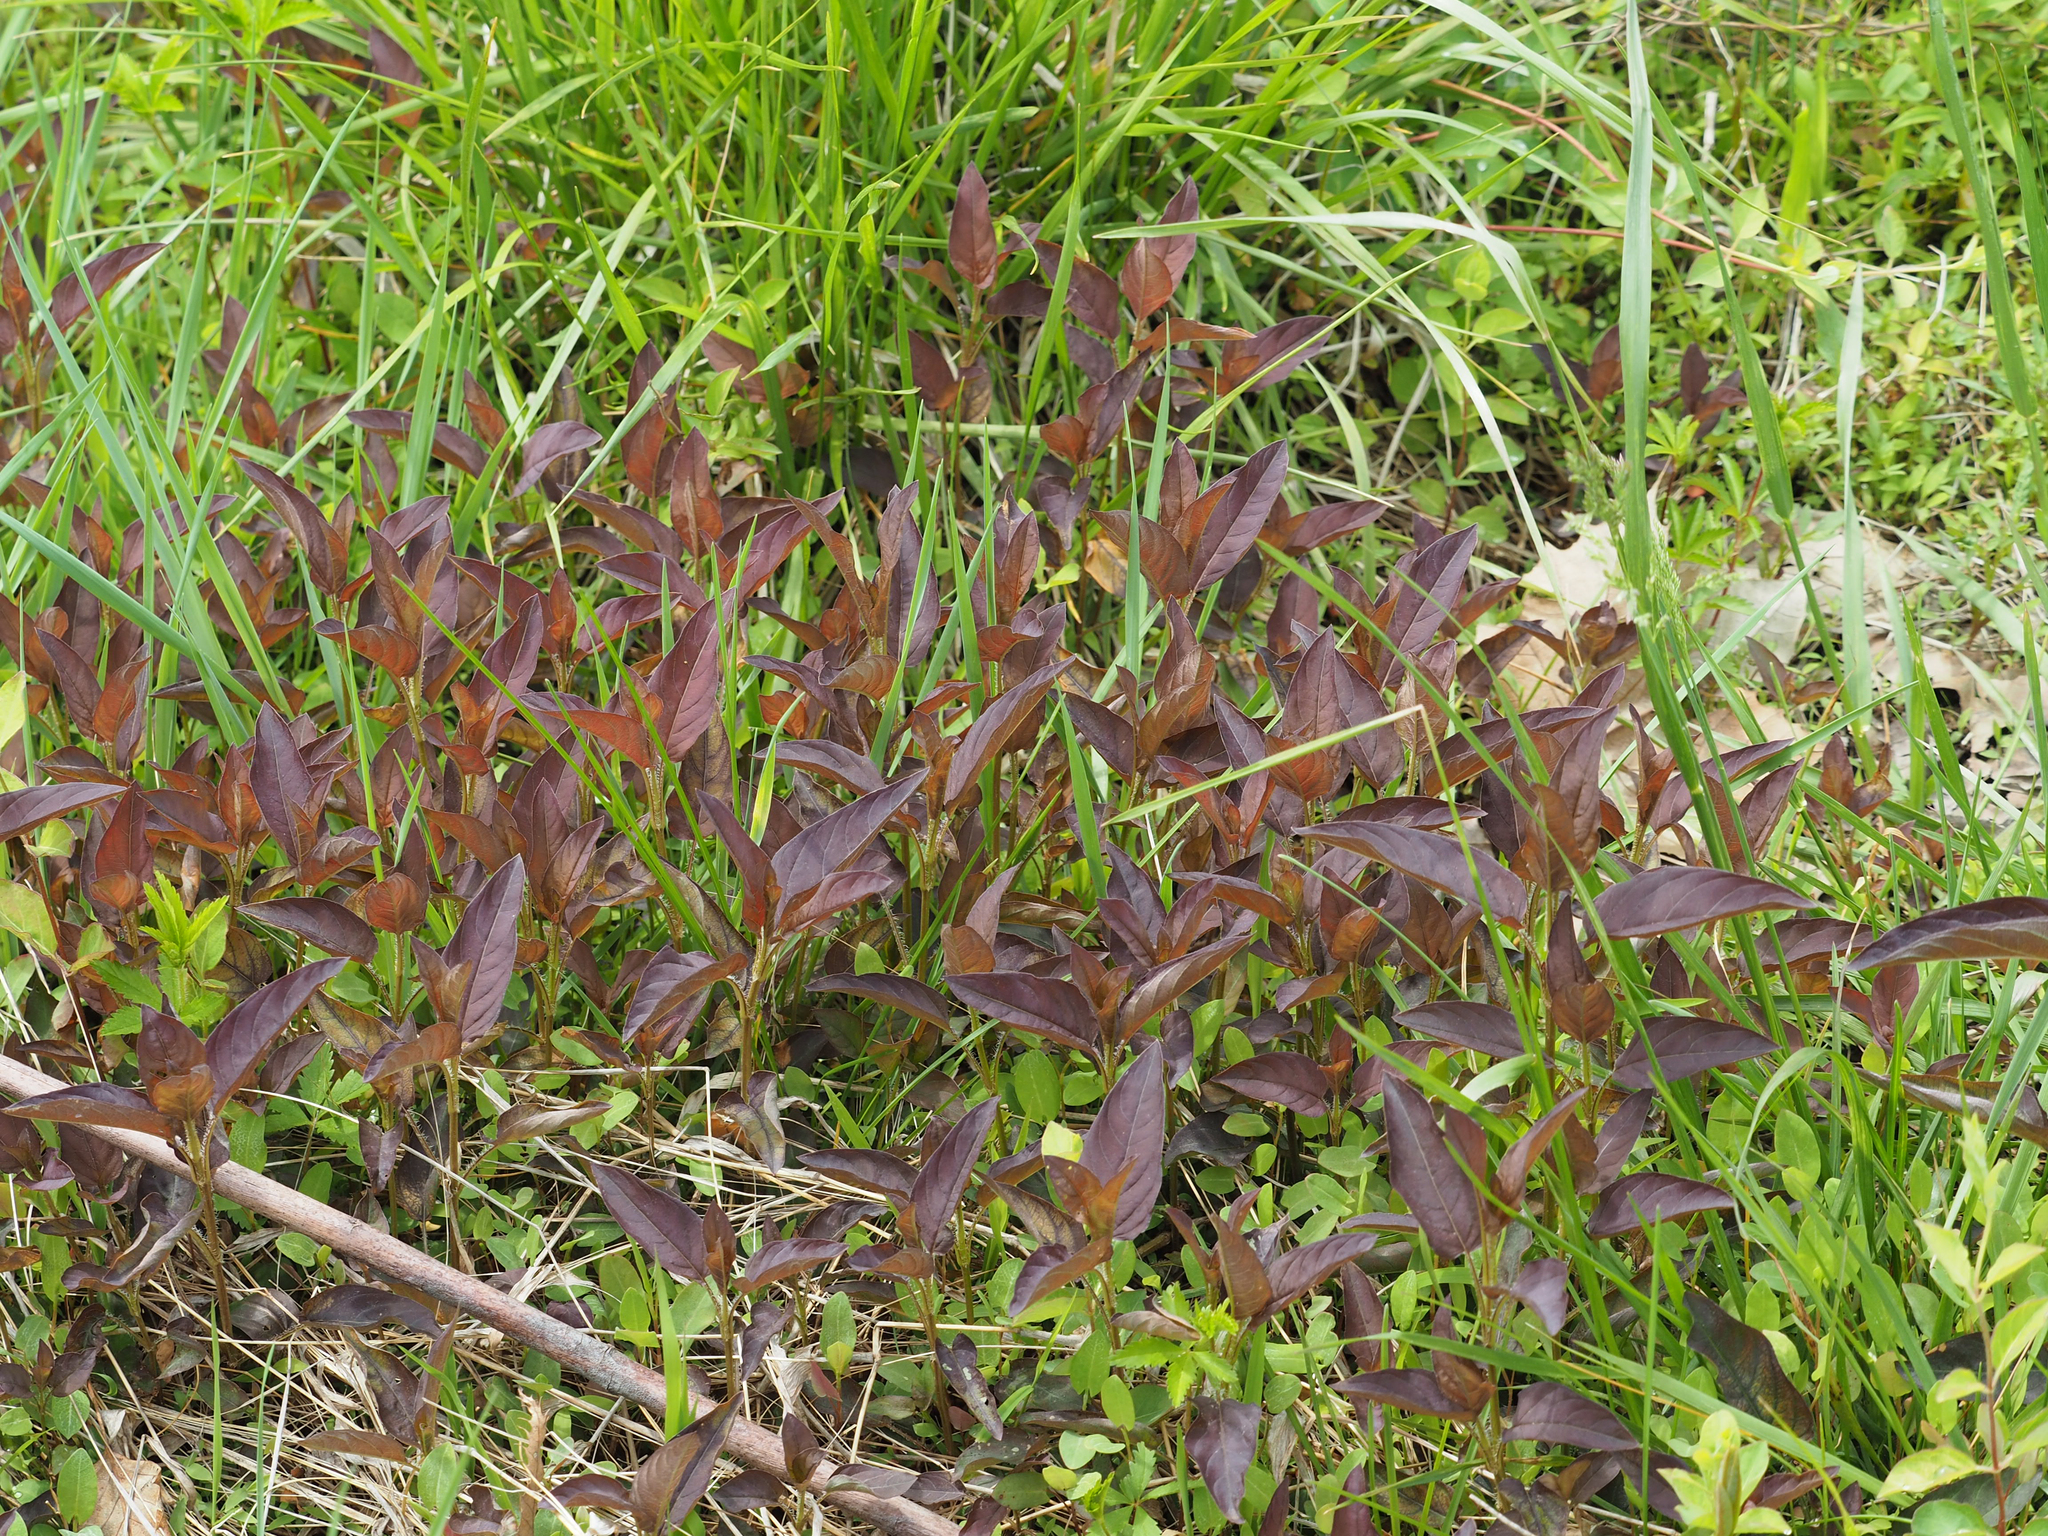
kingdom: Plantae
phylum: Tracheophyta
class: Magnoliopsida
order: Ericales
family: Primulaceae
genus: Lysimachia
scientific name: Lysimachia ciliata
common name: Fringed loosestrife
